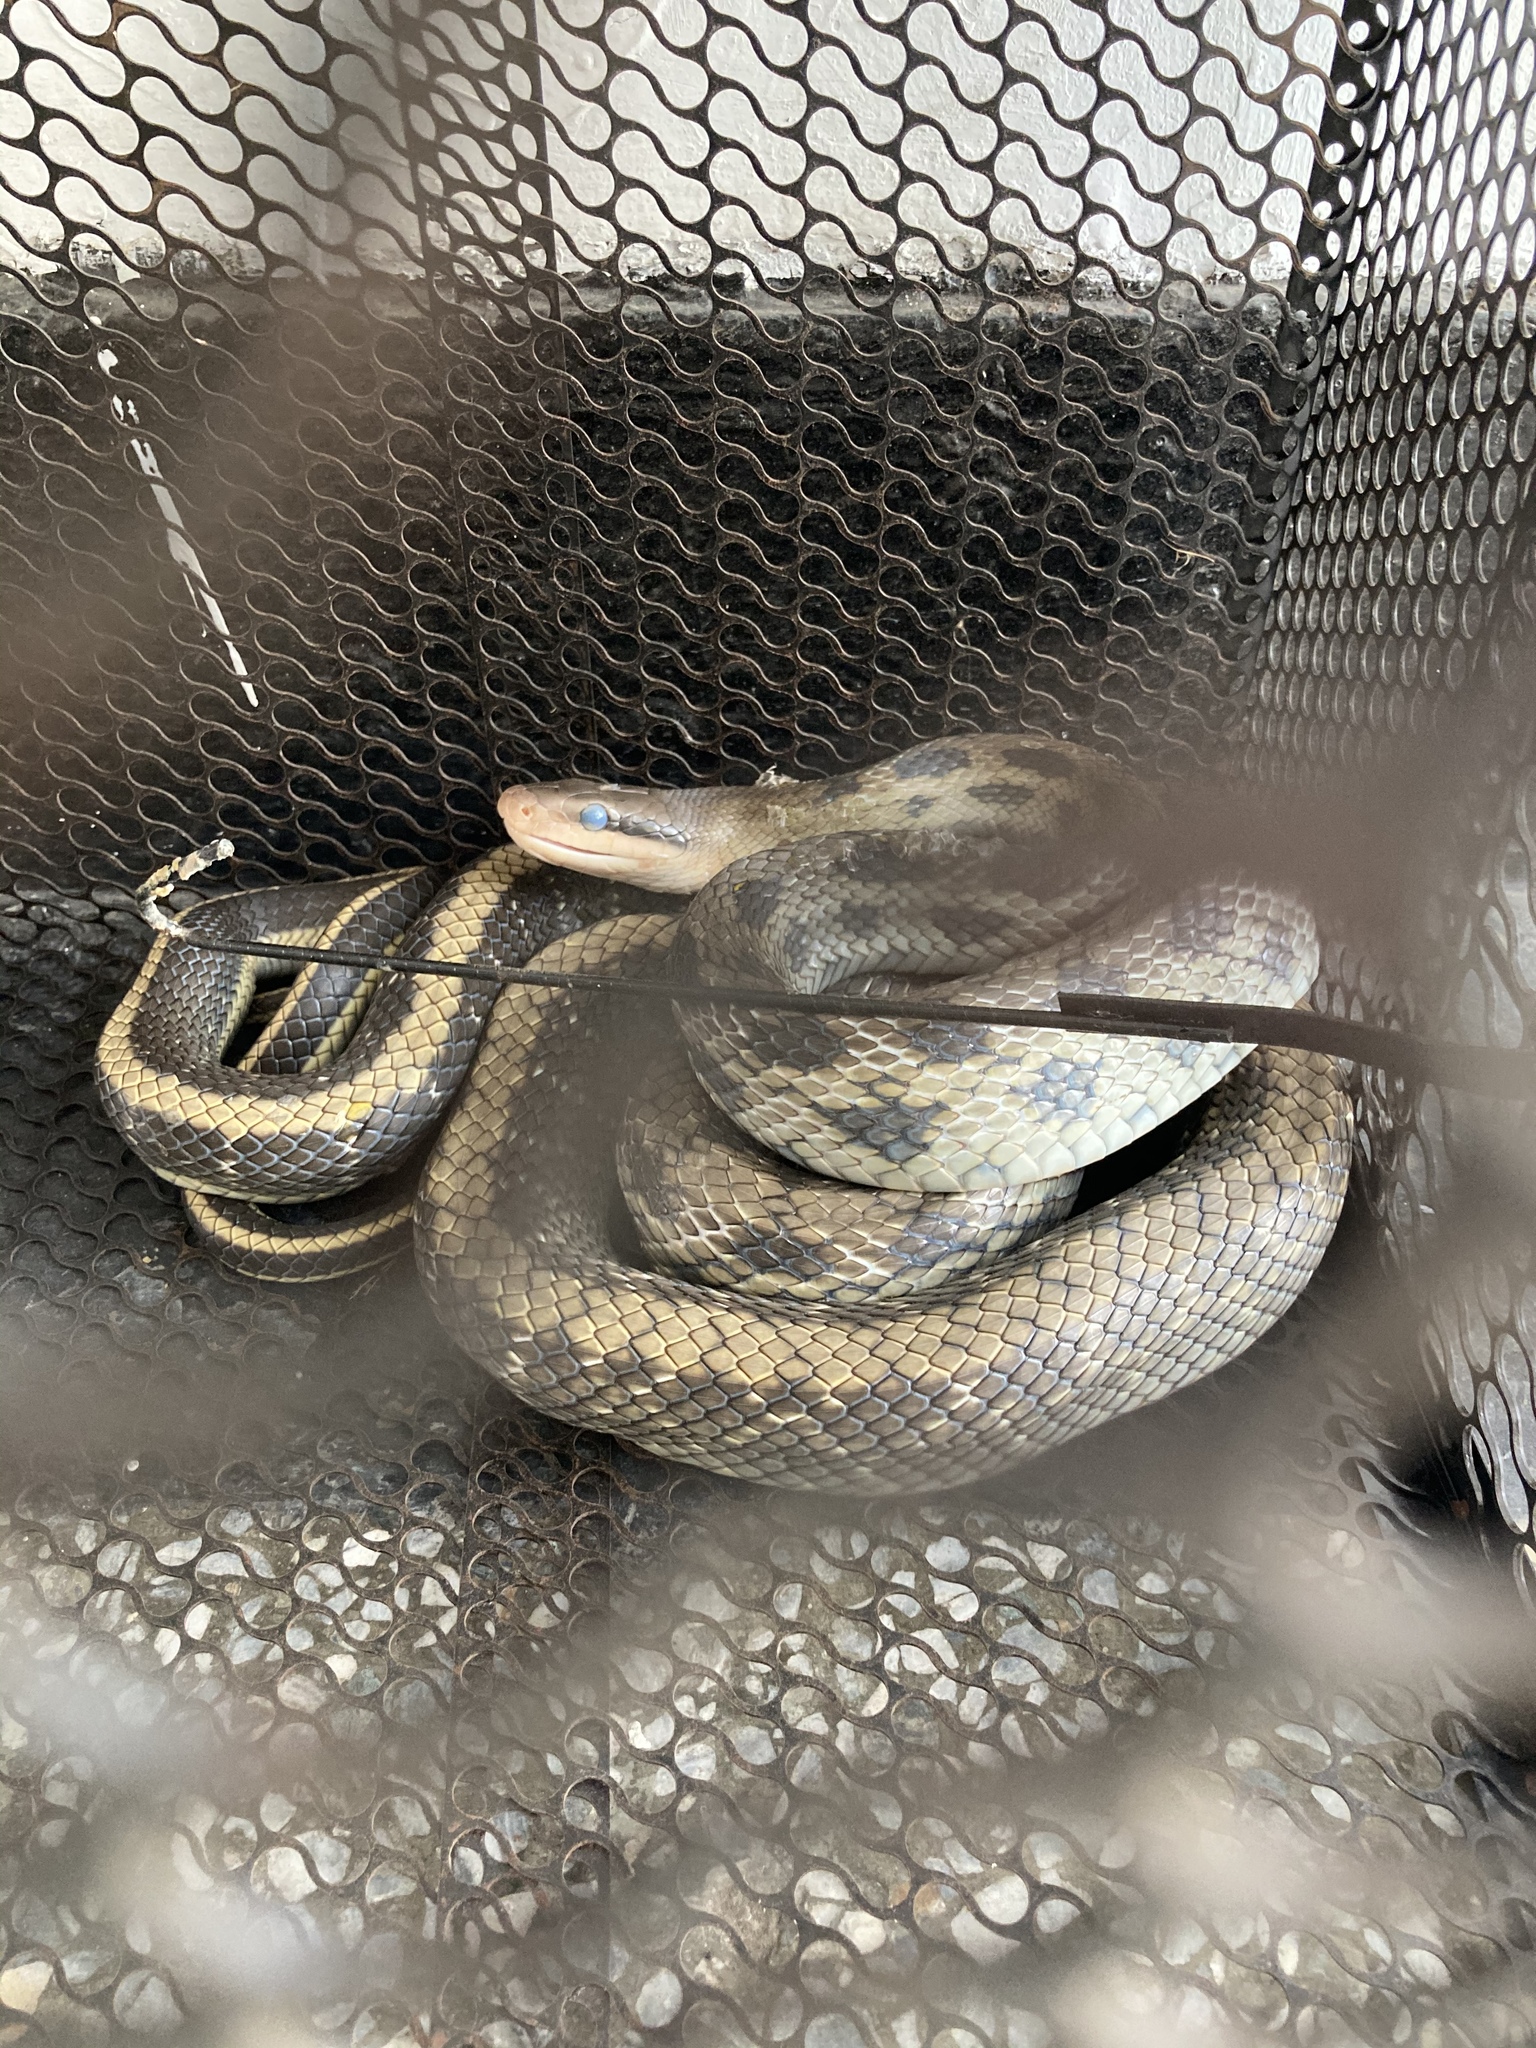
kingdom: Animalia
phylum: Chordata
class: Squamata
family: Colubridae
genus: Elaphe
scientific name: Elaphe taeniura
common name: Beauty snake
